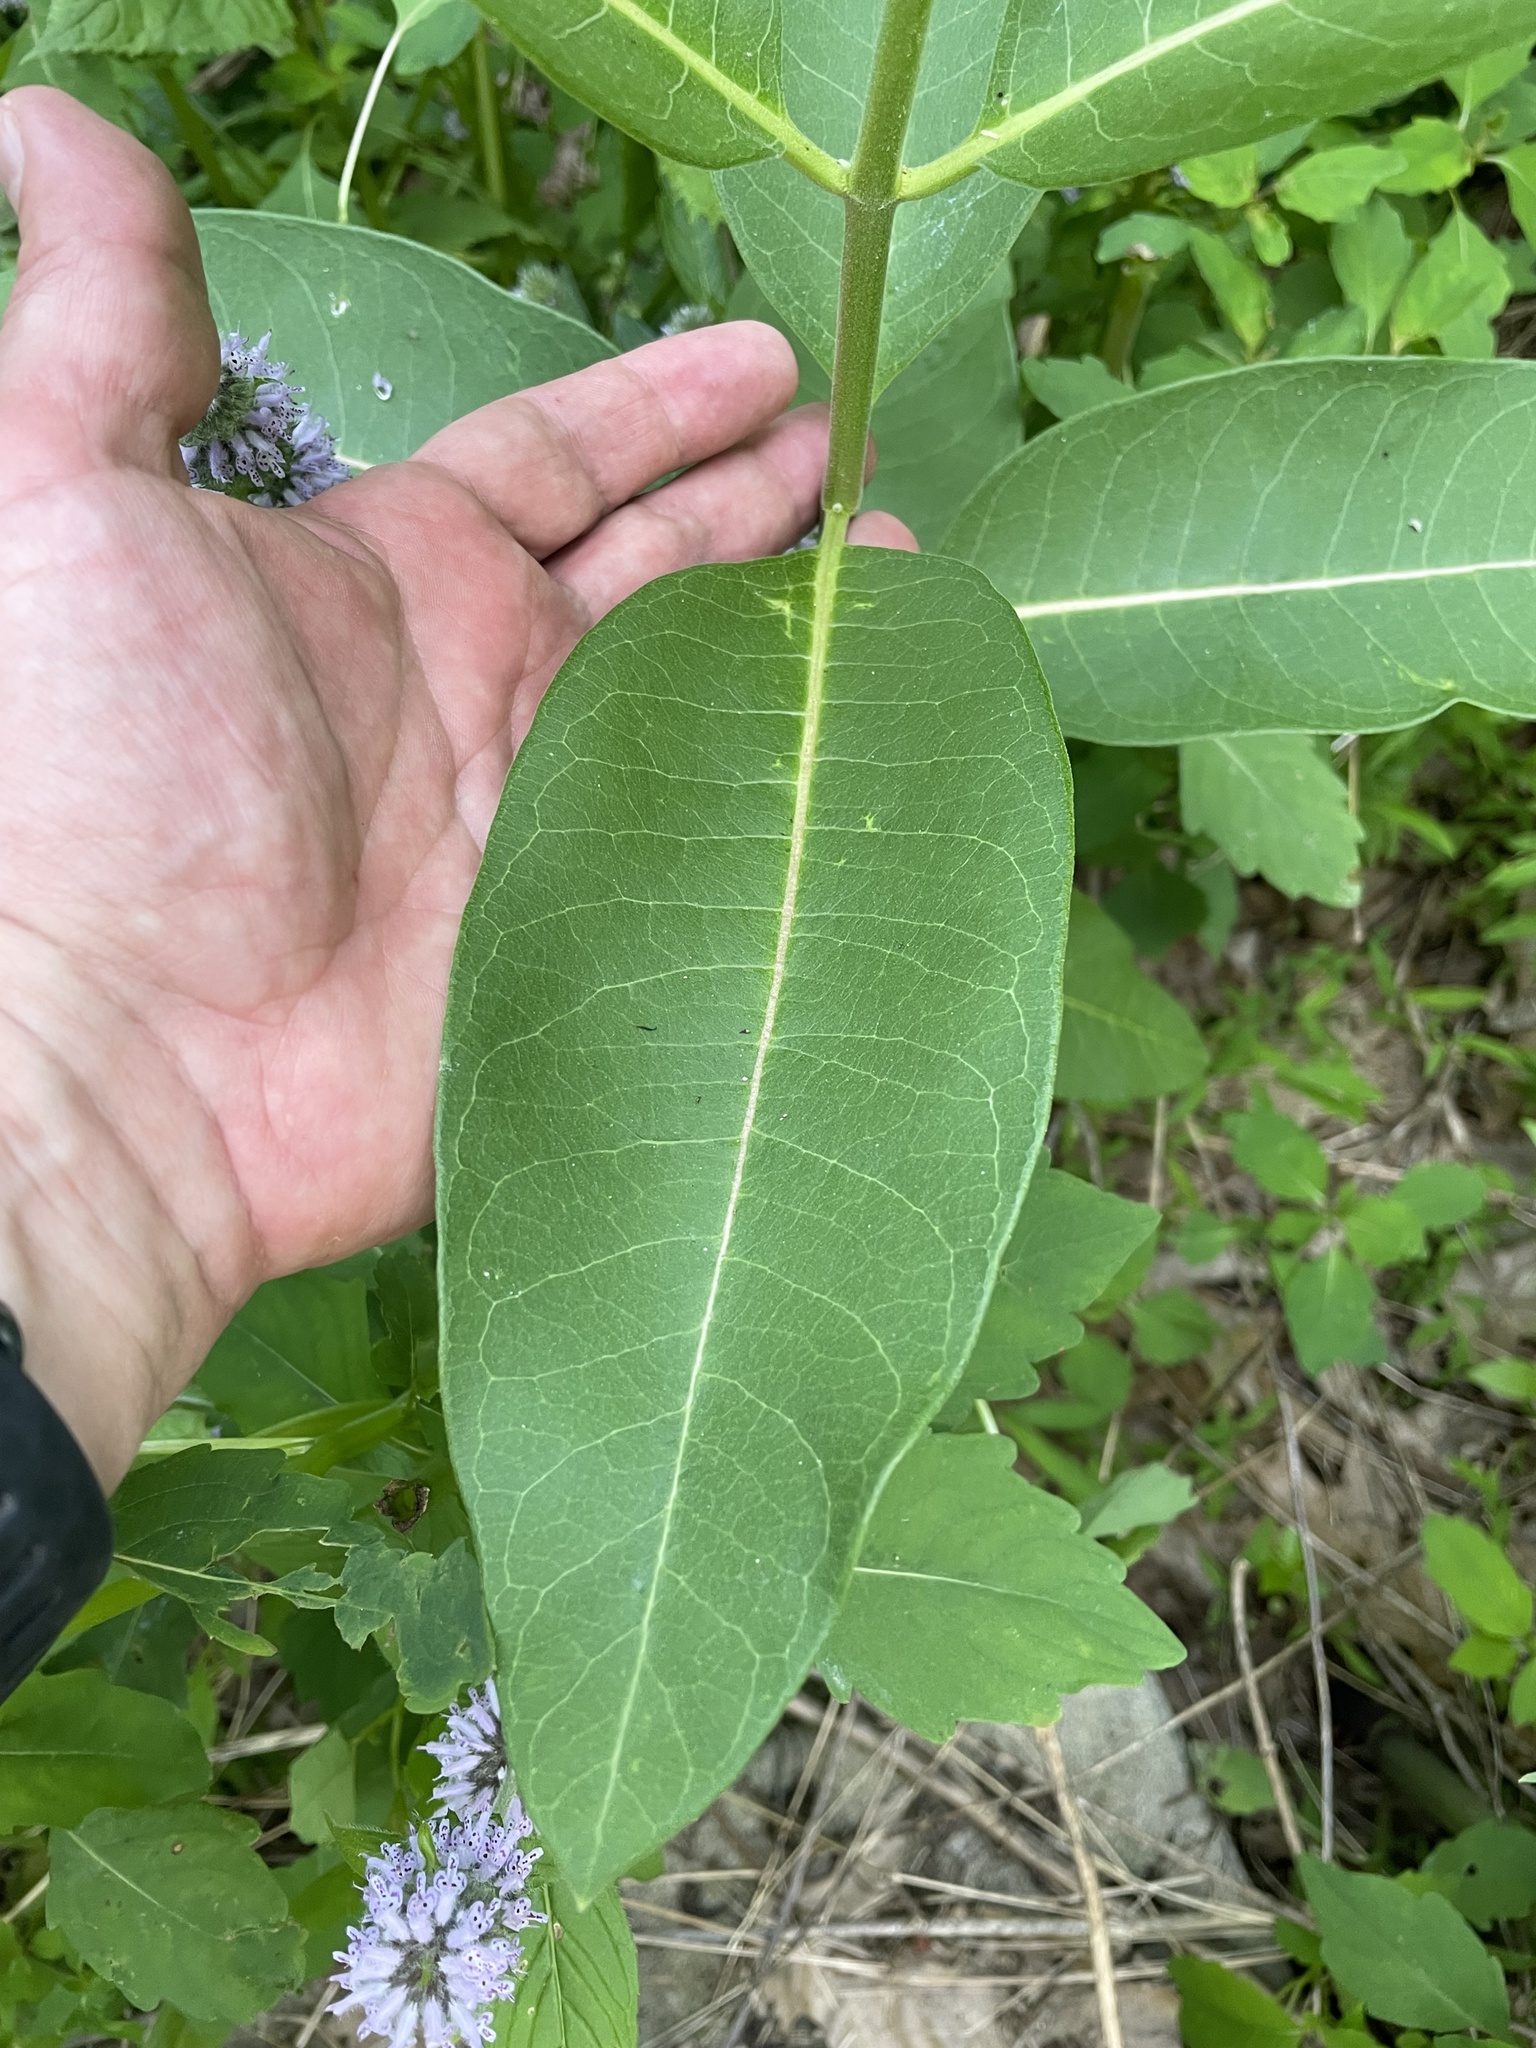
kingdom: Plantae
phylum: Tracheophyta
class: Magnoliopsida
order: Gentianales
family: Apocynaceae
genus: Asclepias
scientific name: Asclepias syriaca
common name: Common milkweed
